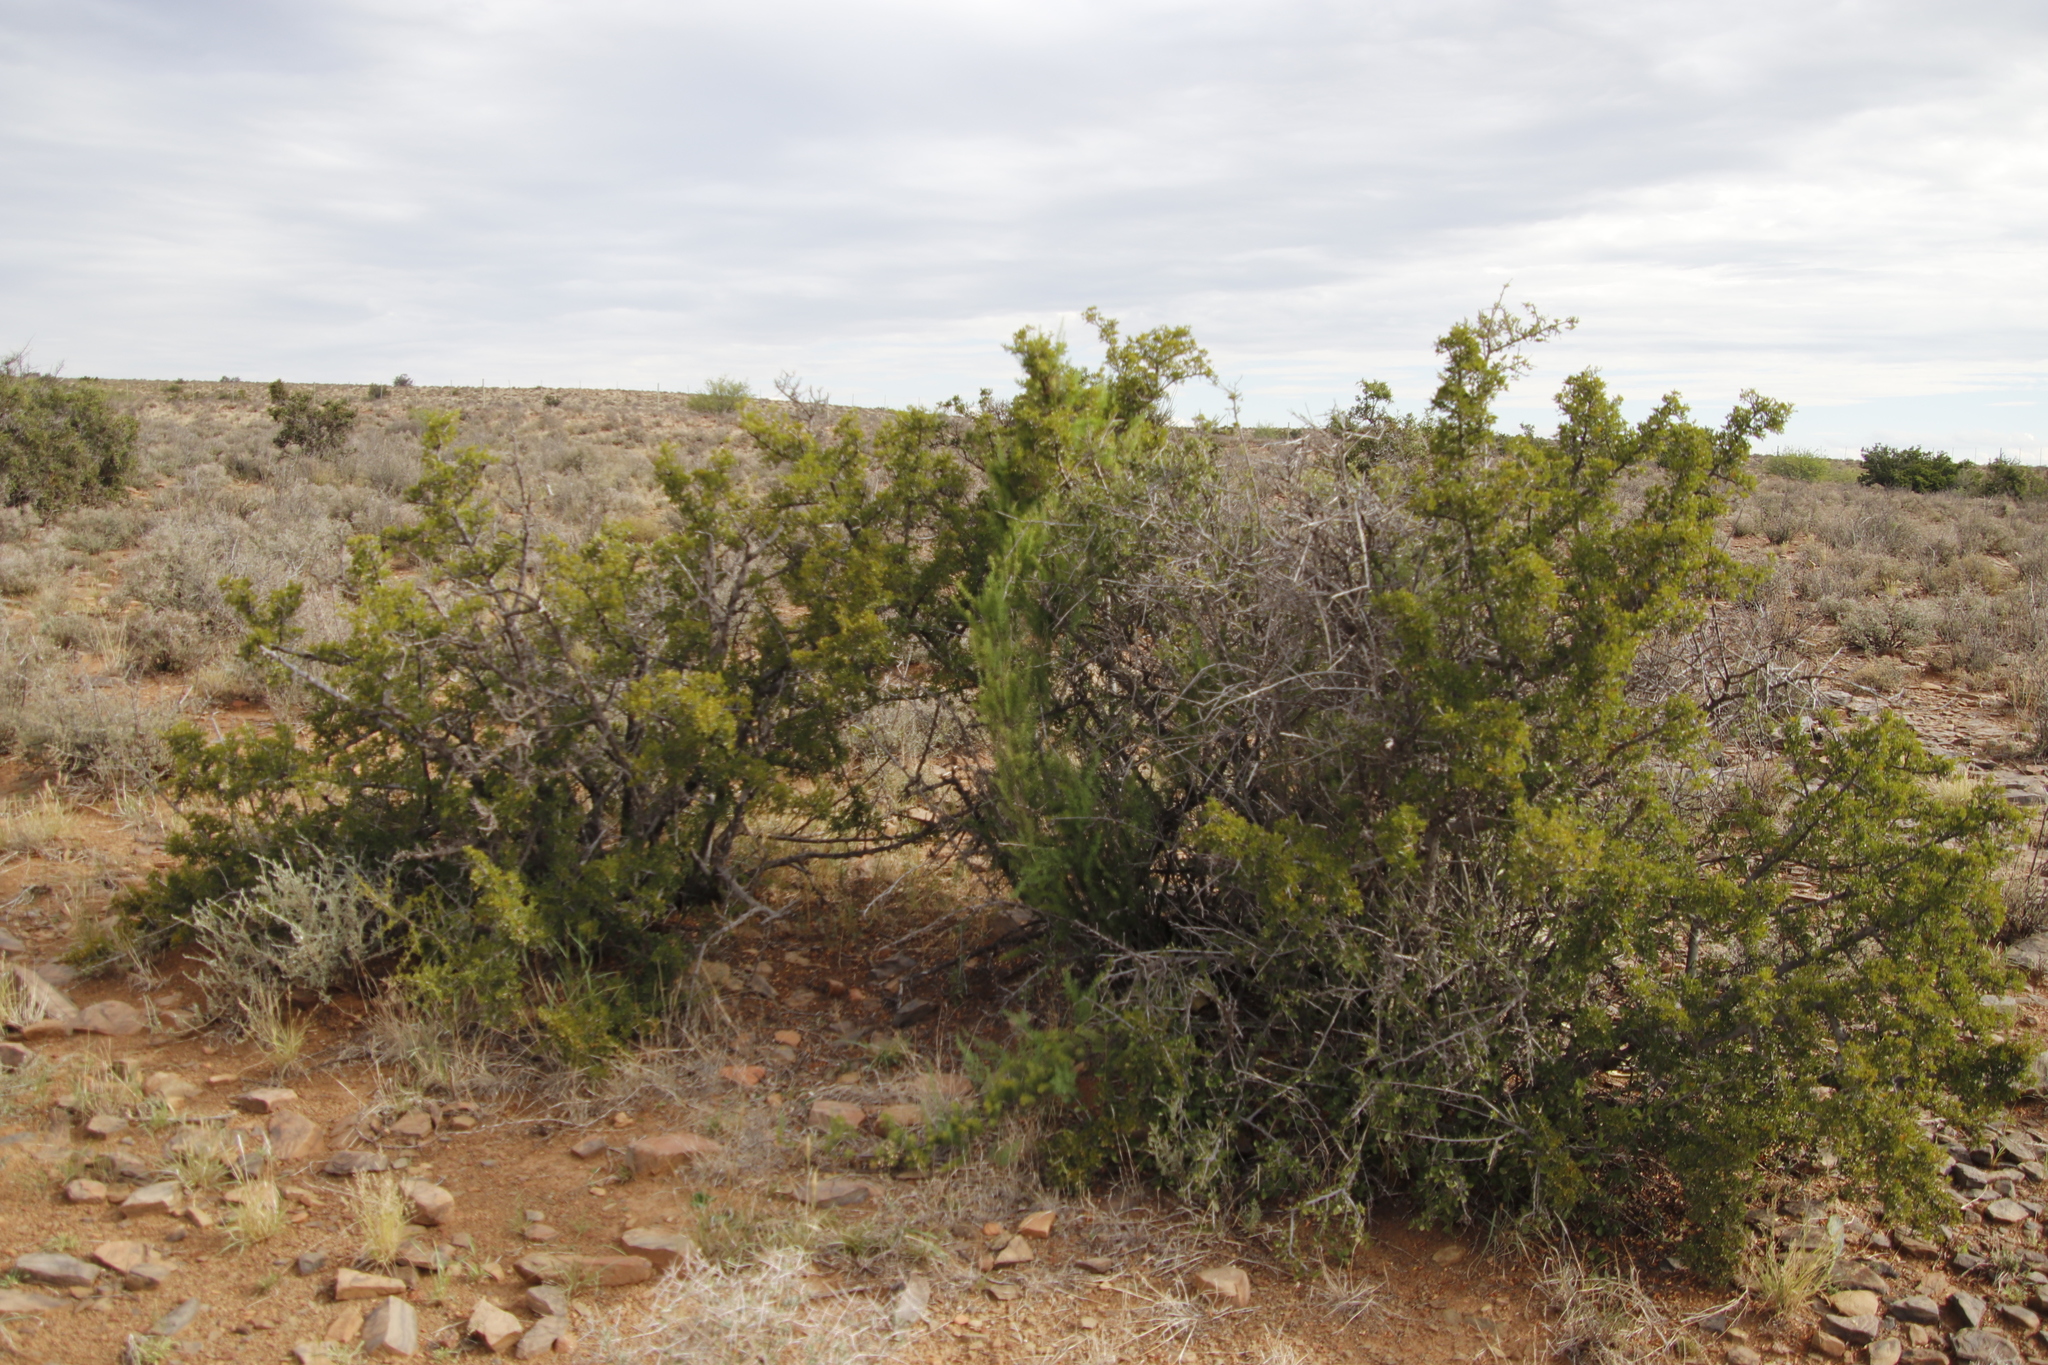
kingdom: Plantae
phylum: Tracheophyta
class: Magnoliopsida
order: Sapindales
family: Anacardiaceae
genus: Searsia
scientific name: Searsia burchellii
